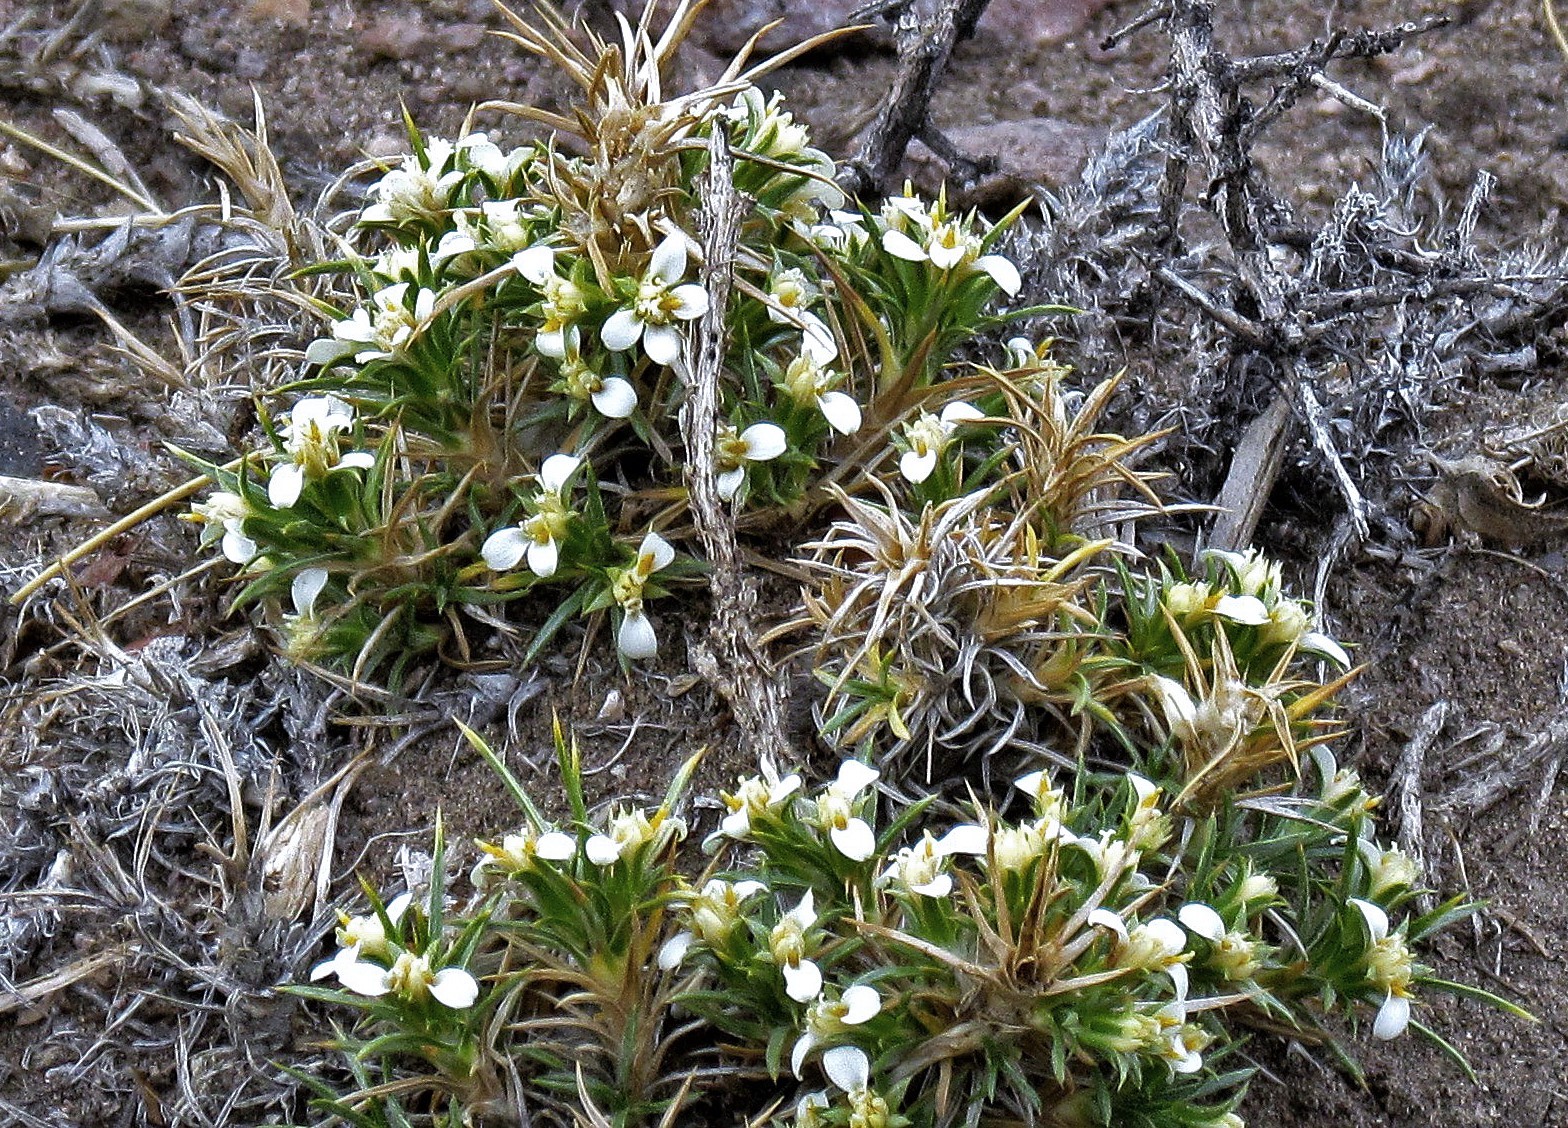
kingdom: Plantae
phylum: Tracheophyta
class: Magnoliopsida
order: Asterales
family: Asteraceae
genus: Nassauvia
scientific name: Nassauvia axillaris
